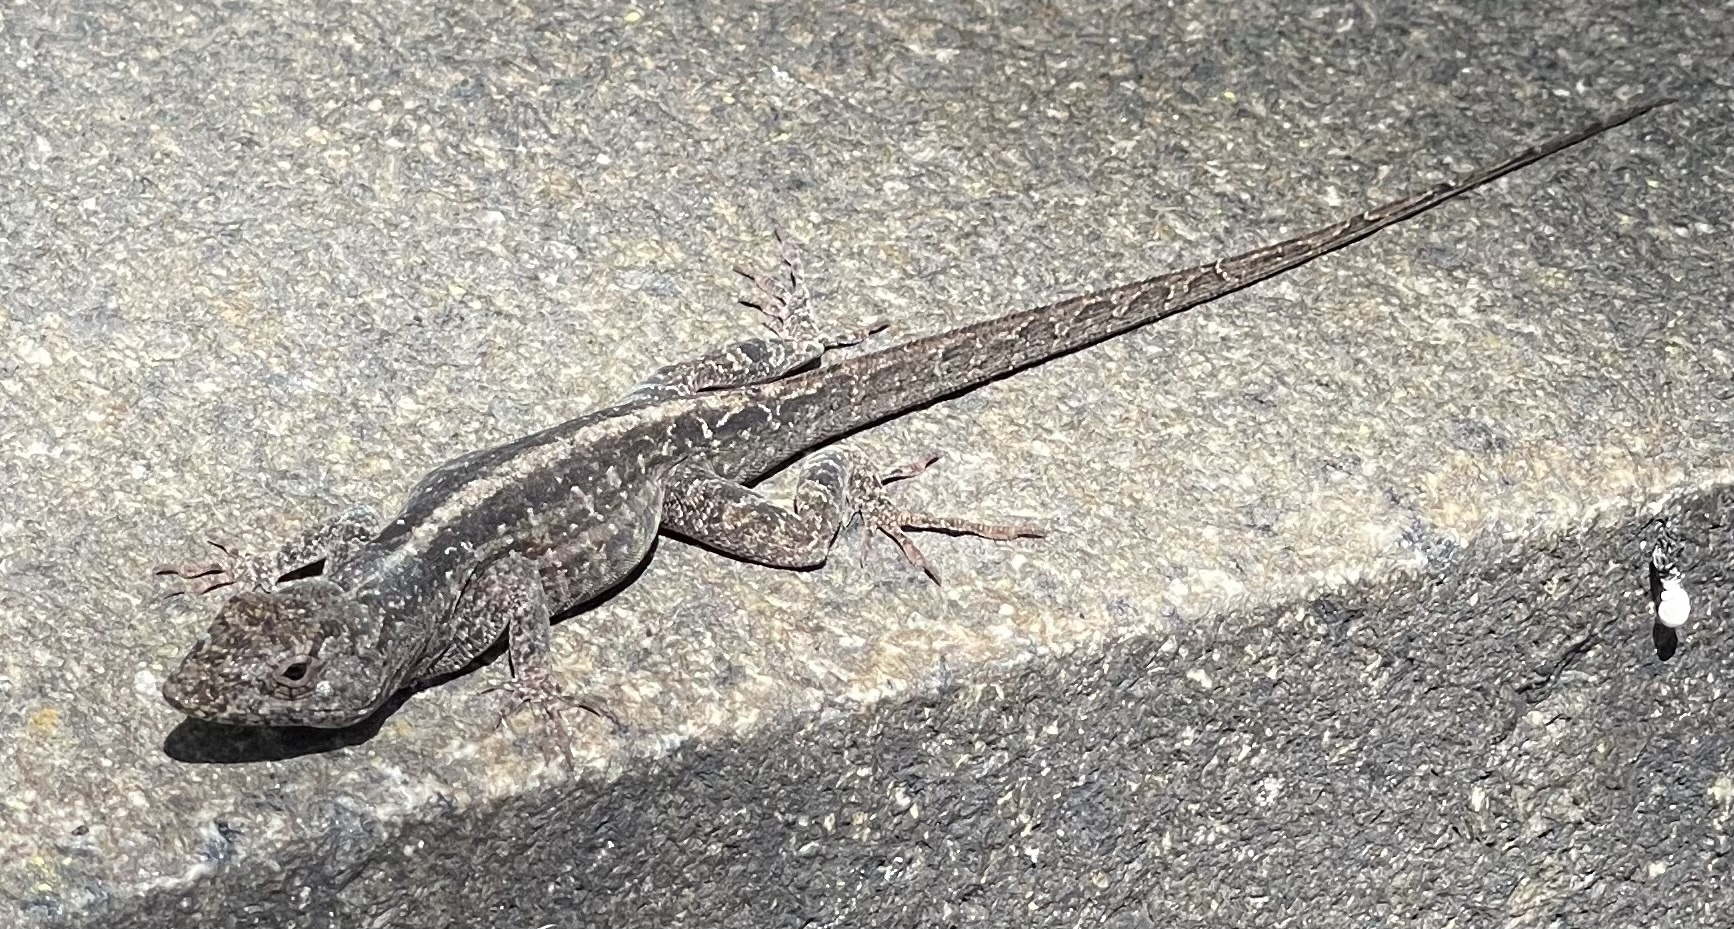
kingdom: Animalia
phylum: Chordata
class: Squamata
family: Dactyloidae
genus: Anolis
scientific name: Anolis sagrei
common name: Brown anole
